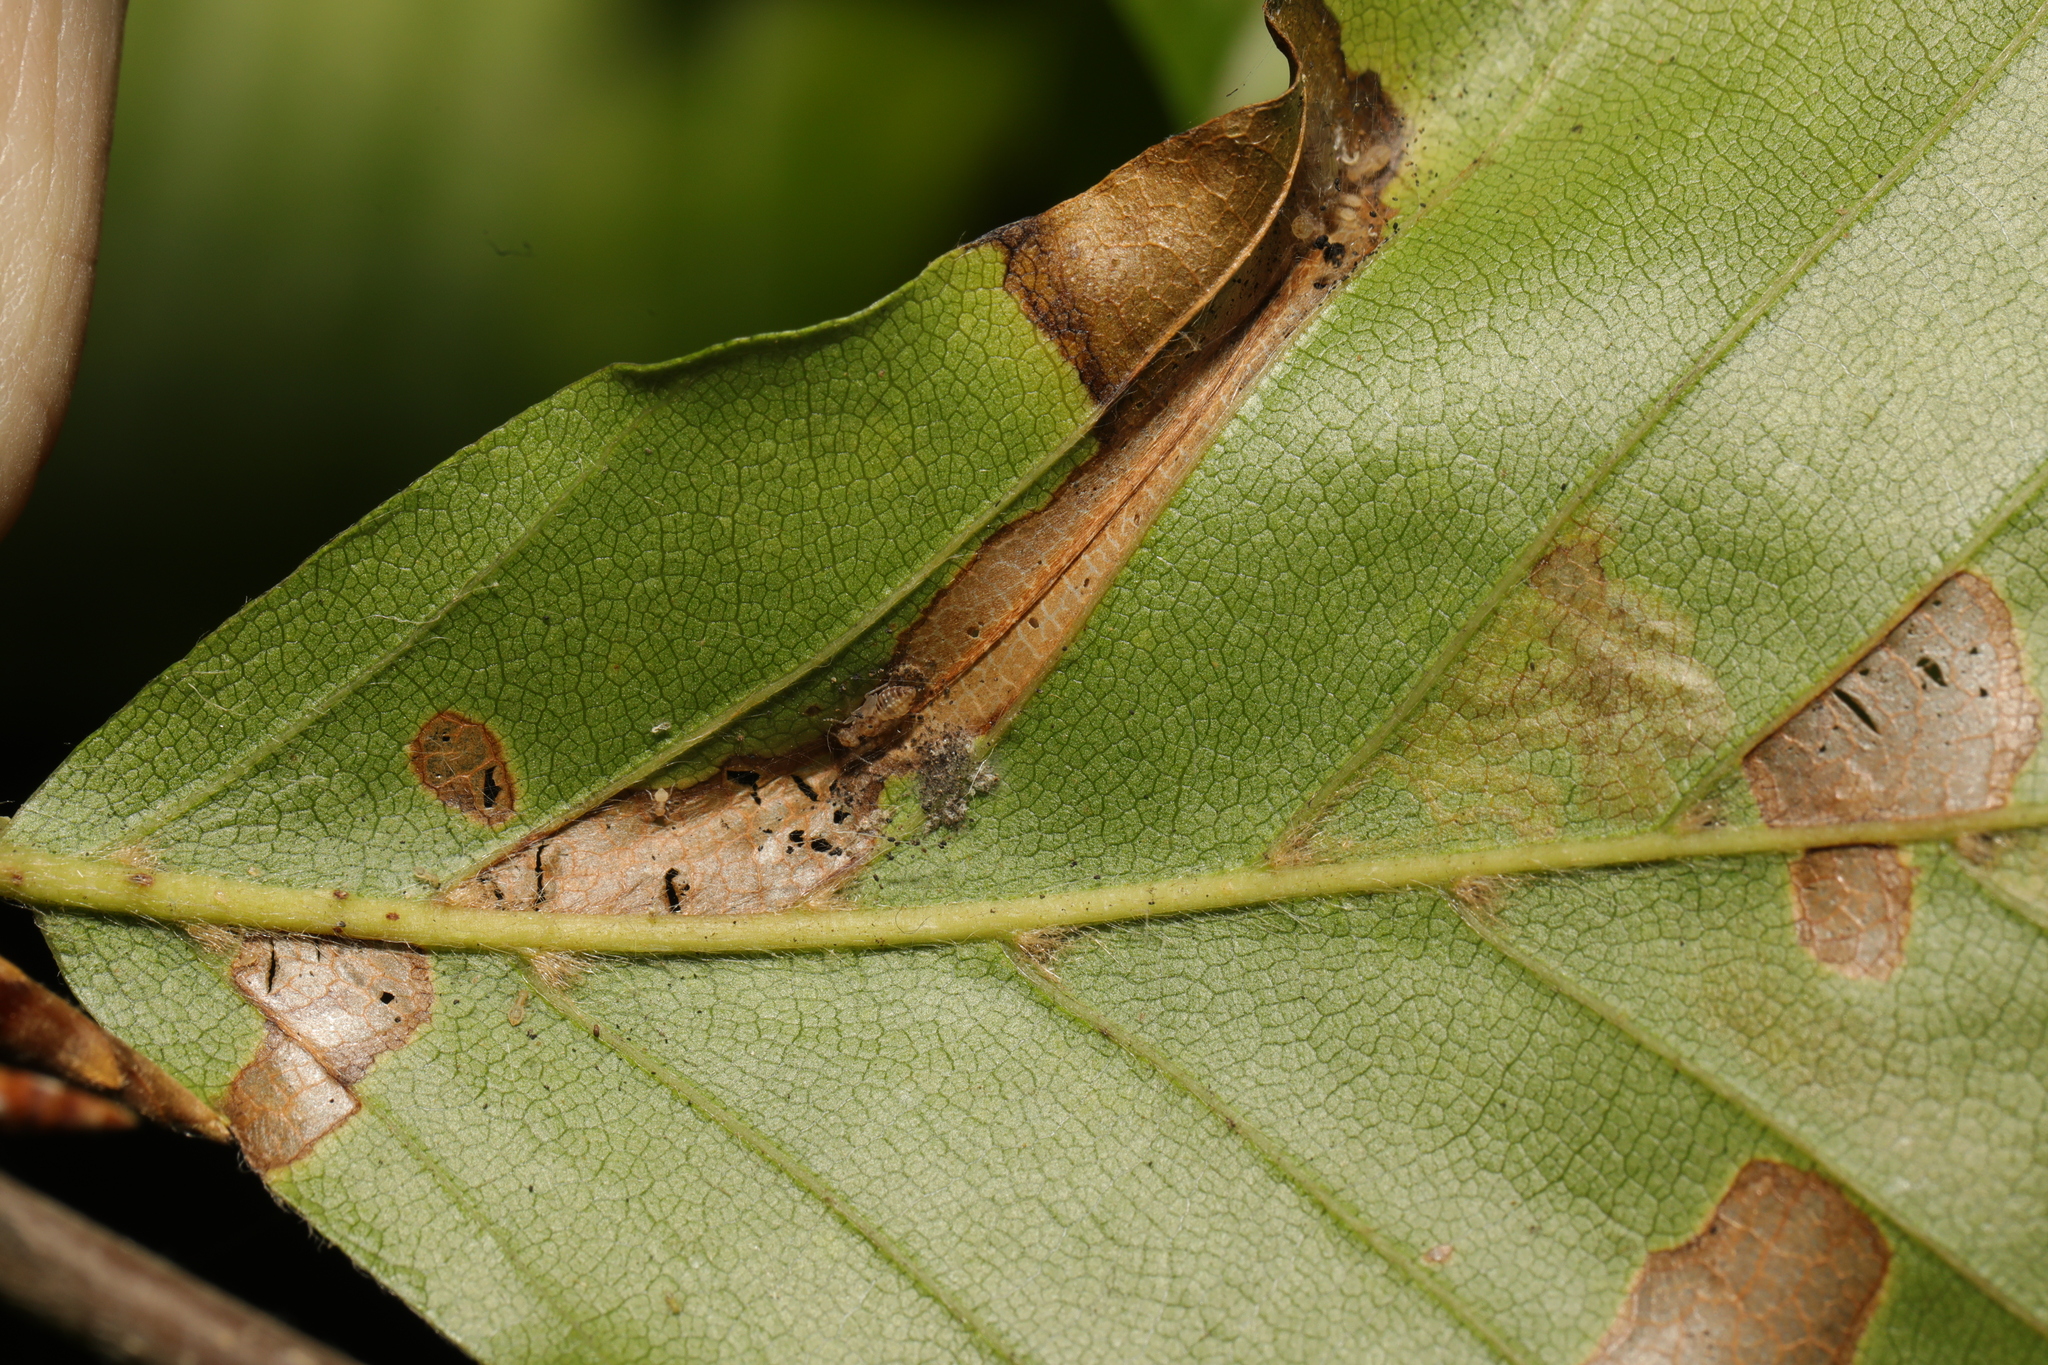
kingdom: Animalia
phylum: Arthropoda
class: Insecta
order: Lepidoptera
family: Gracillariidae
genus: Phyllonorycter
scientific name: Phyllonorycter maestingella
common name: Beech midget
